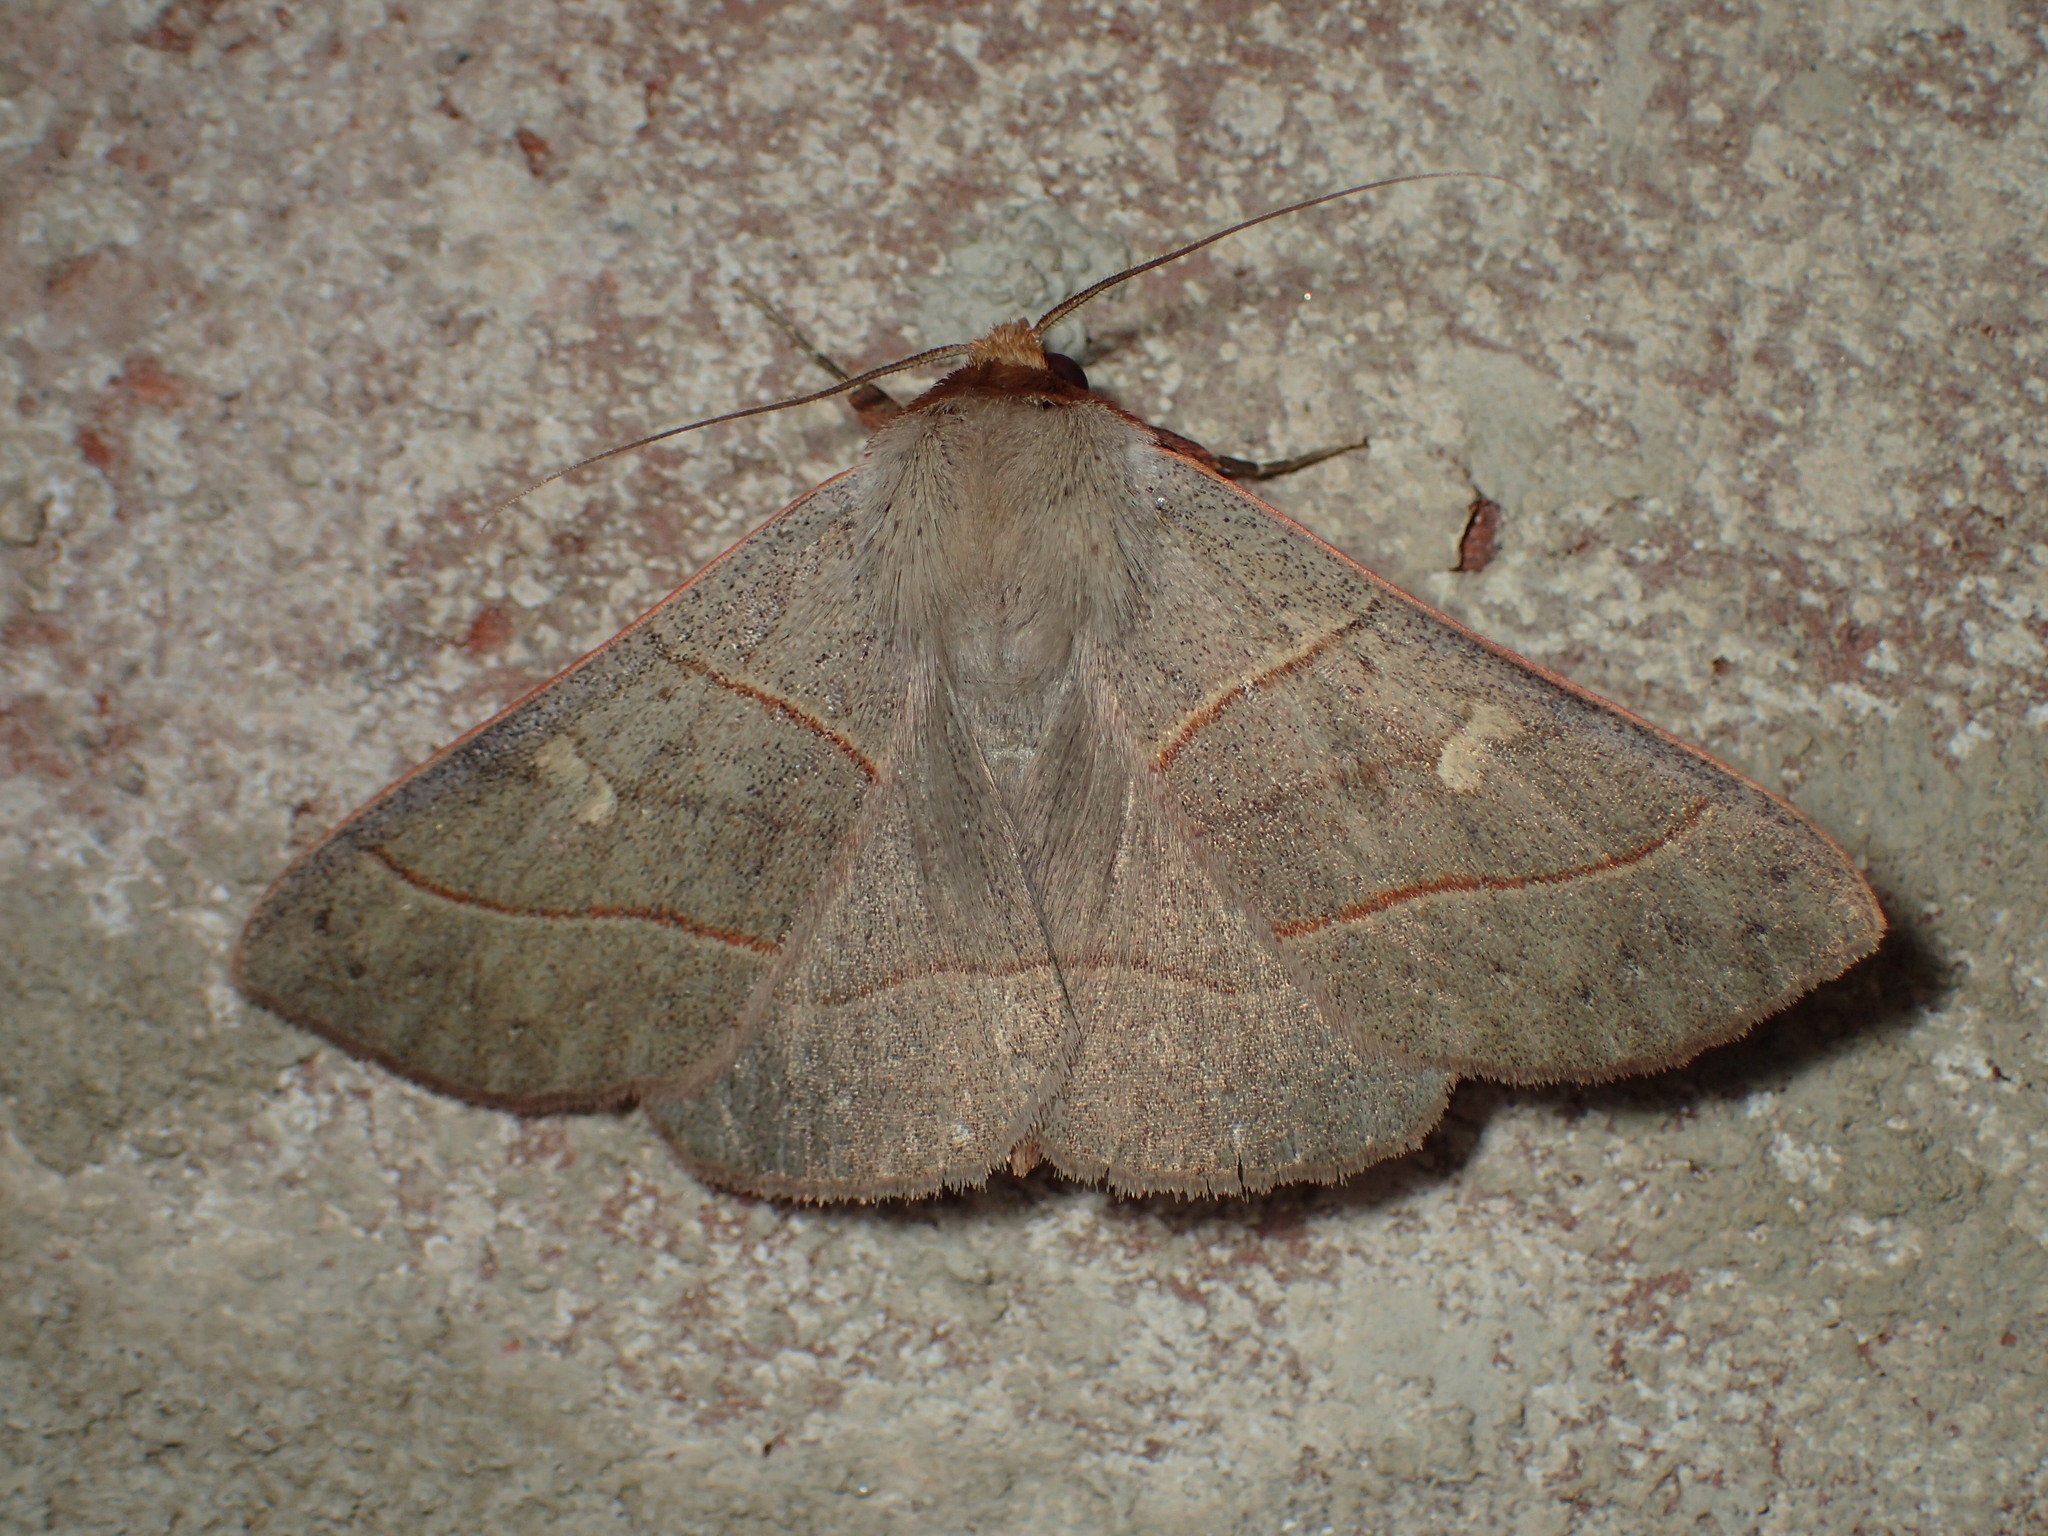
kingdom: Animalia
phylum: Arthropoda
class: Insecta
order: Lepidoptera
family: Erebidae
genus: Panopoda
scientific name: Panopoda rufimargo
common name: Red-lined panopoda moth
